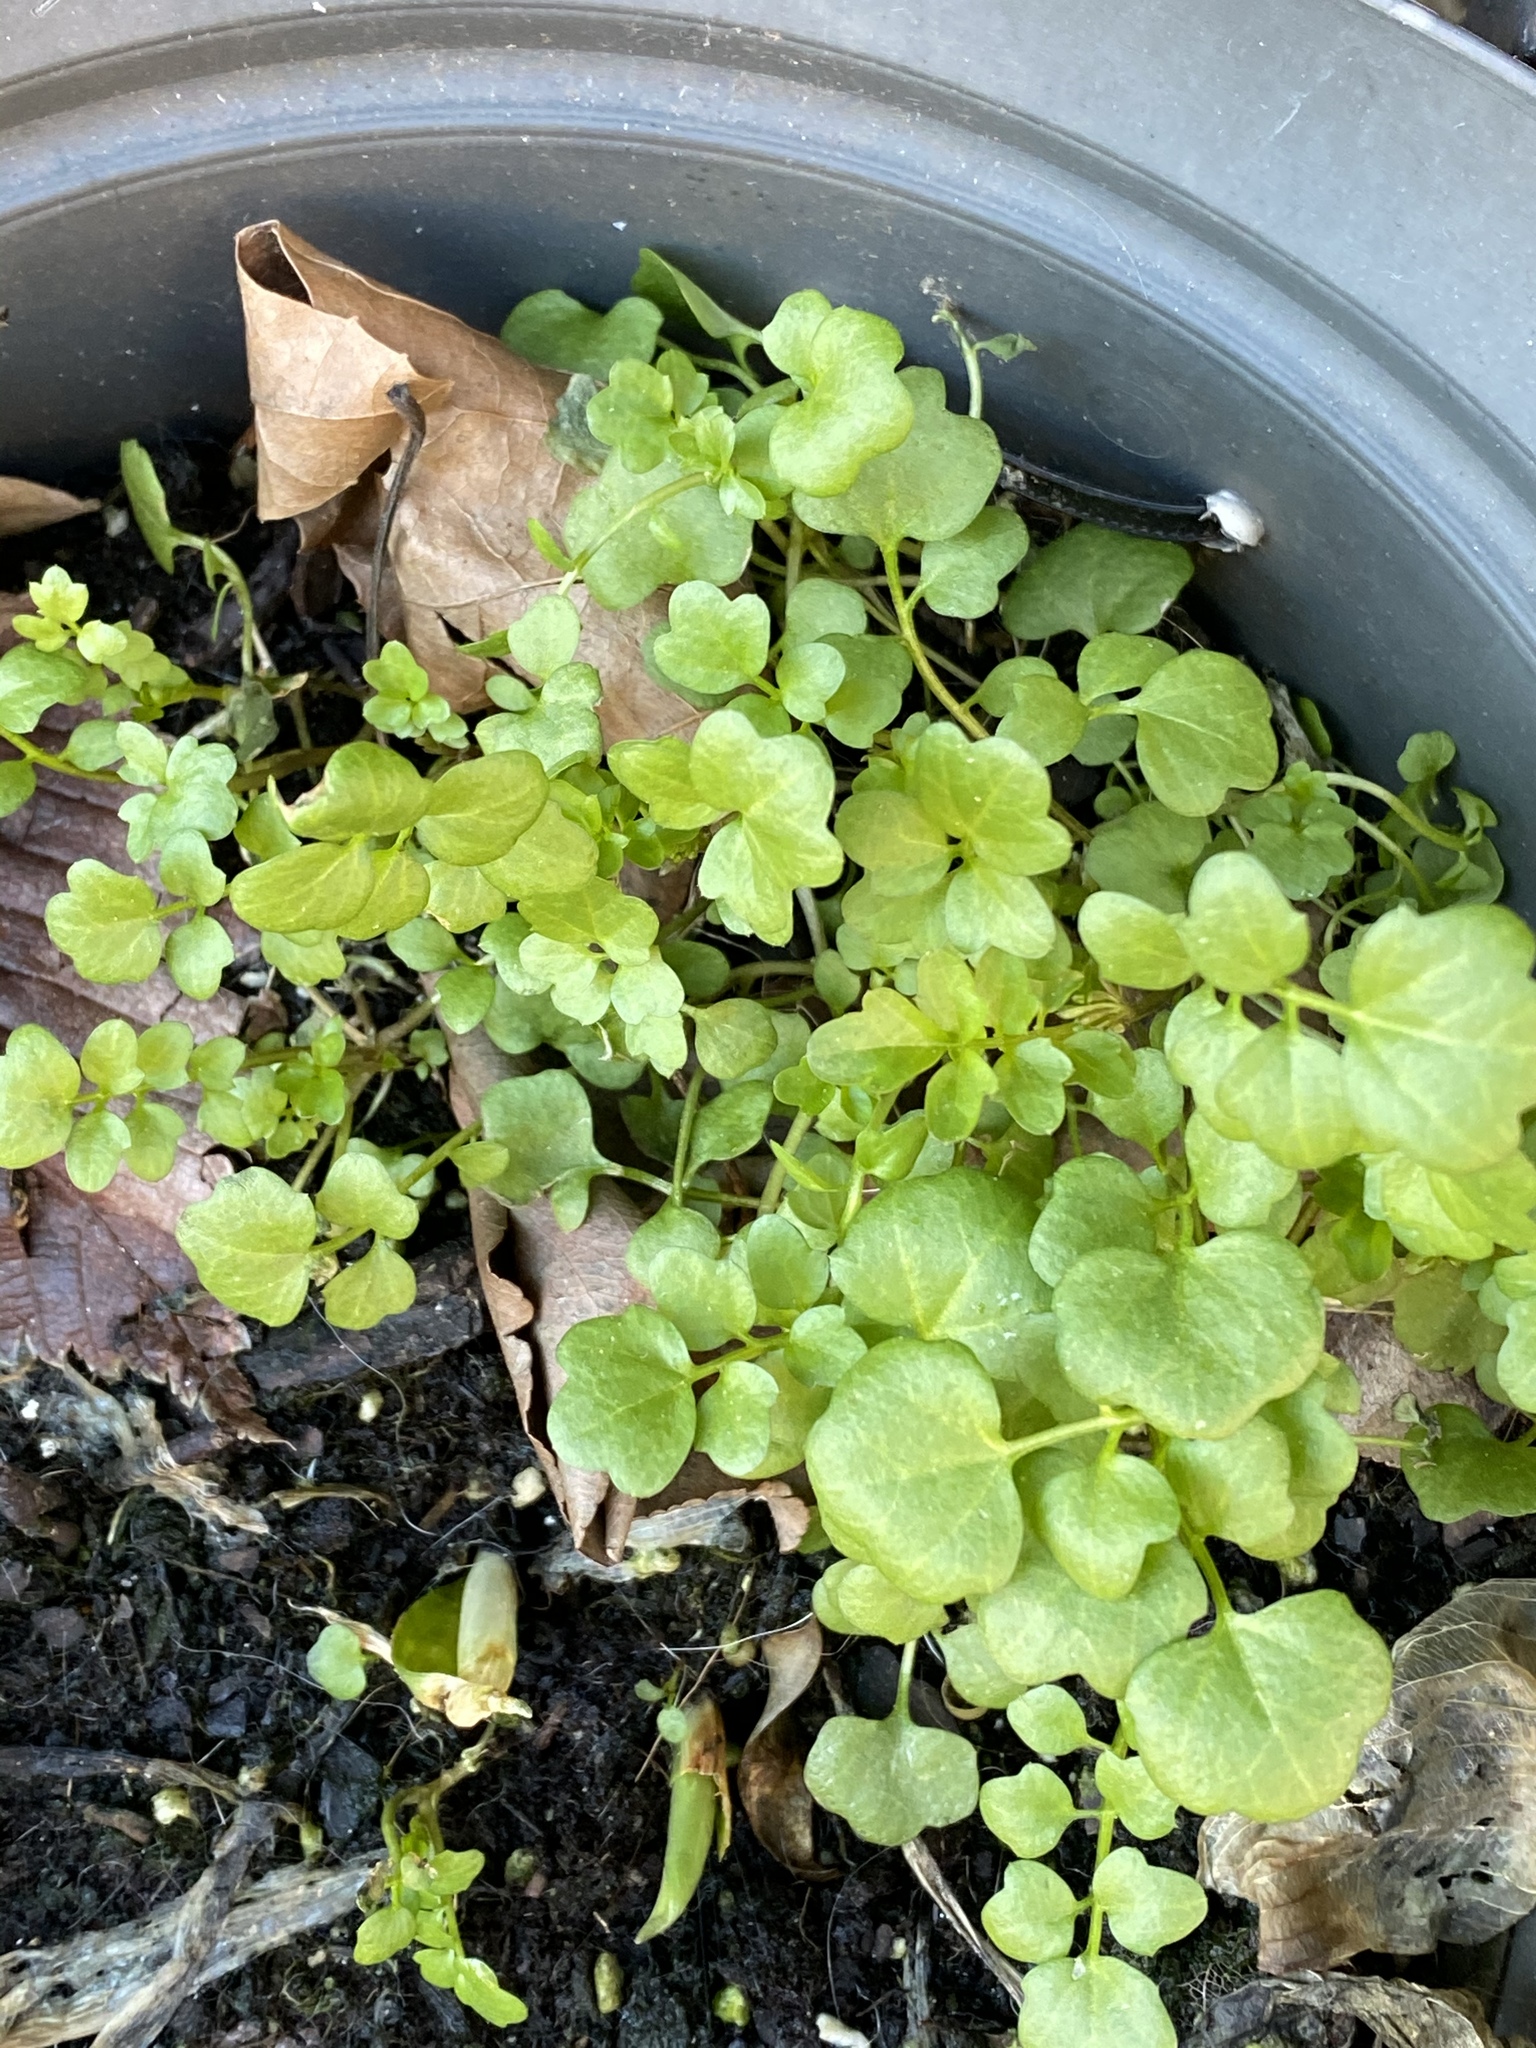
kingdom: Plantae
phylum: Tracheophyta
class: Magnoliopsida
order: Brassicales
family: Brassicaceae
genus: Cardamine
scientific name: Cardamine hirsuta
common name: Hairy bittercress
